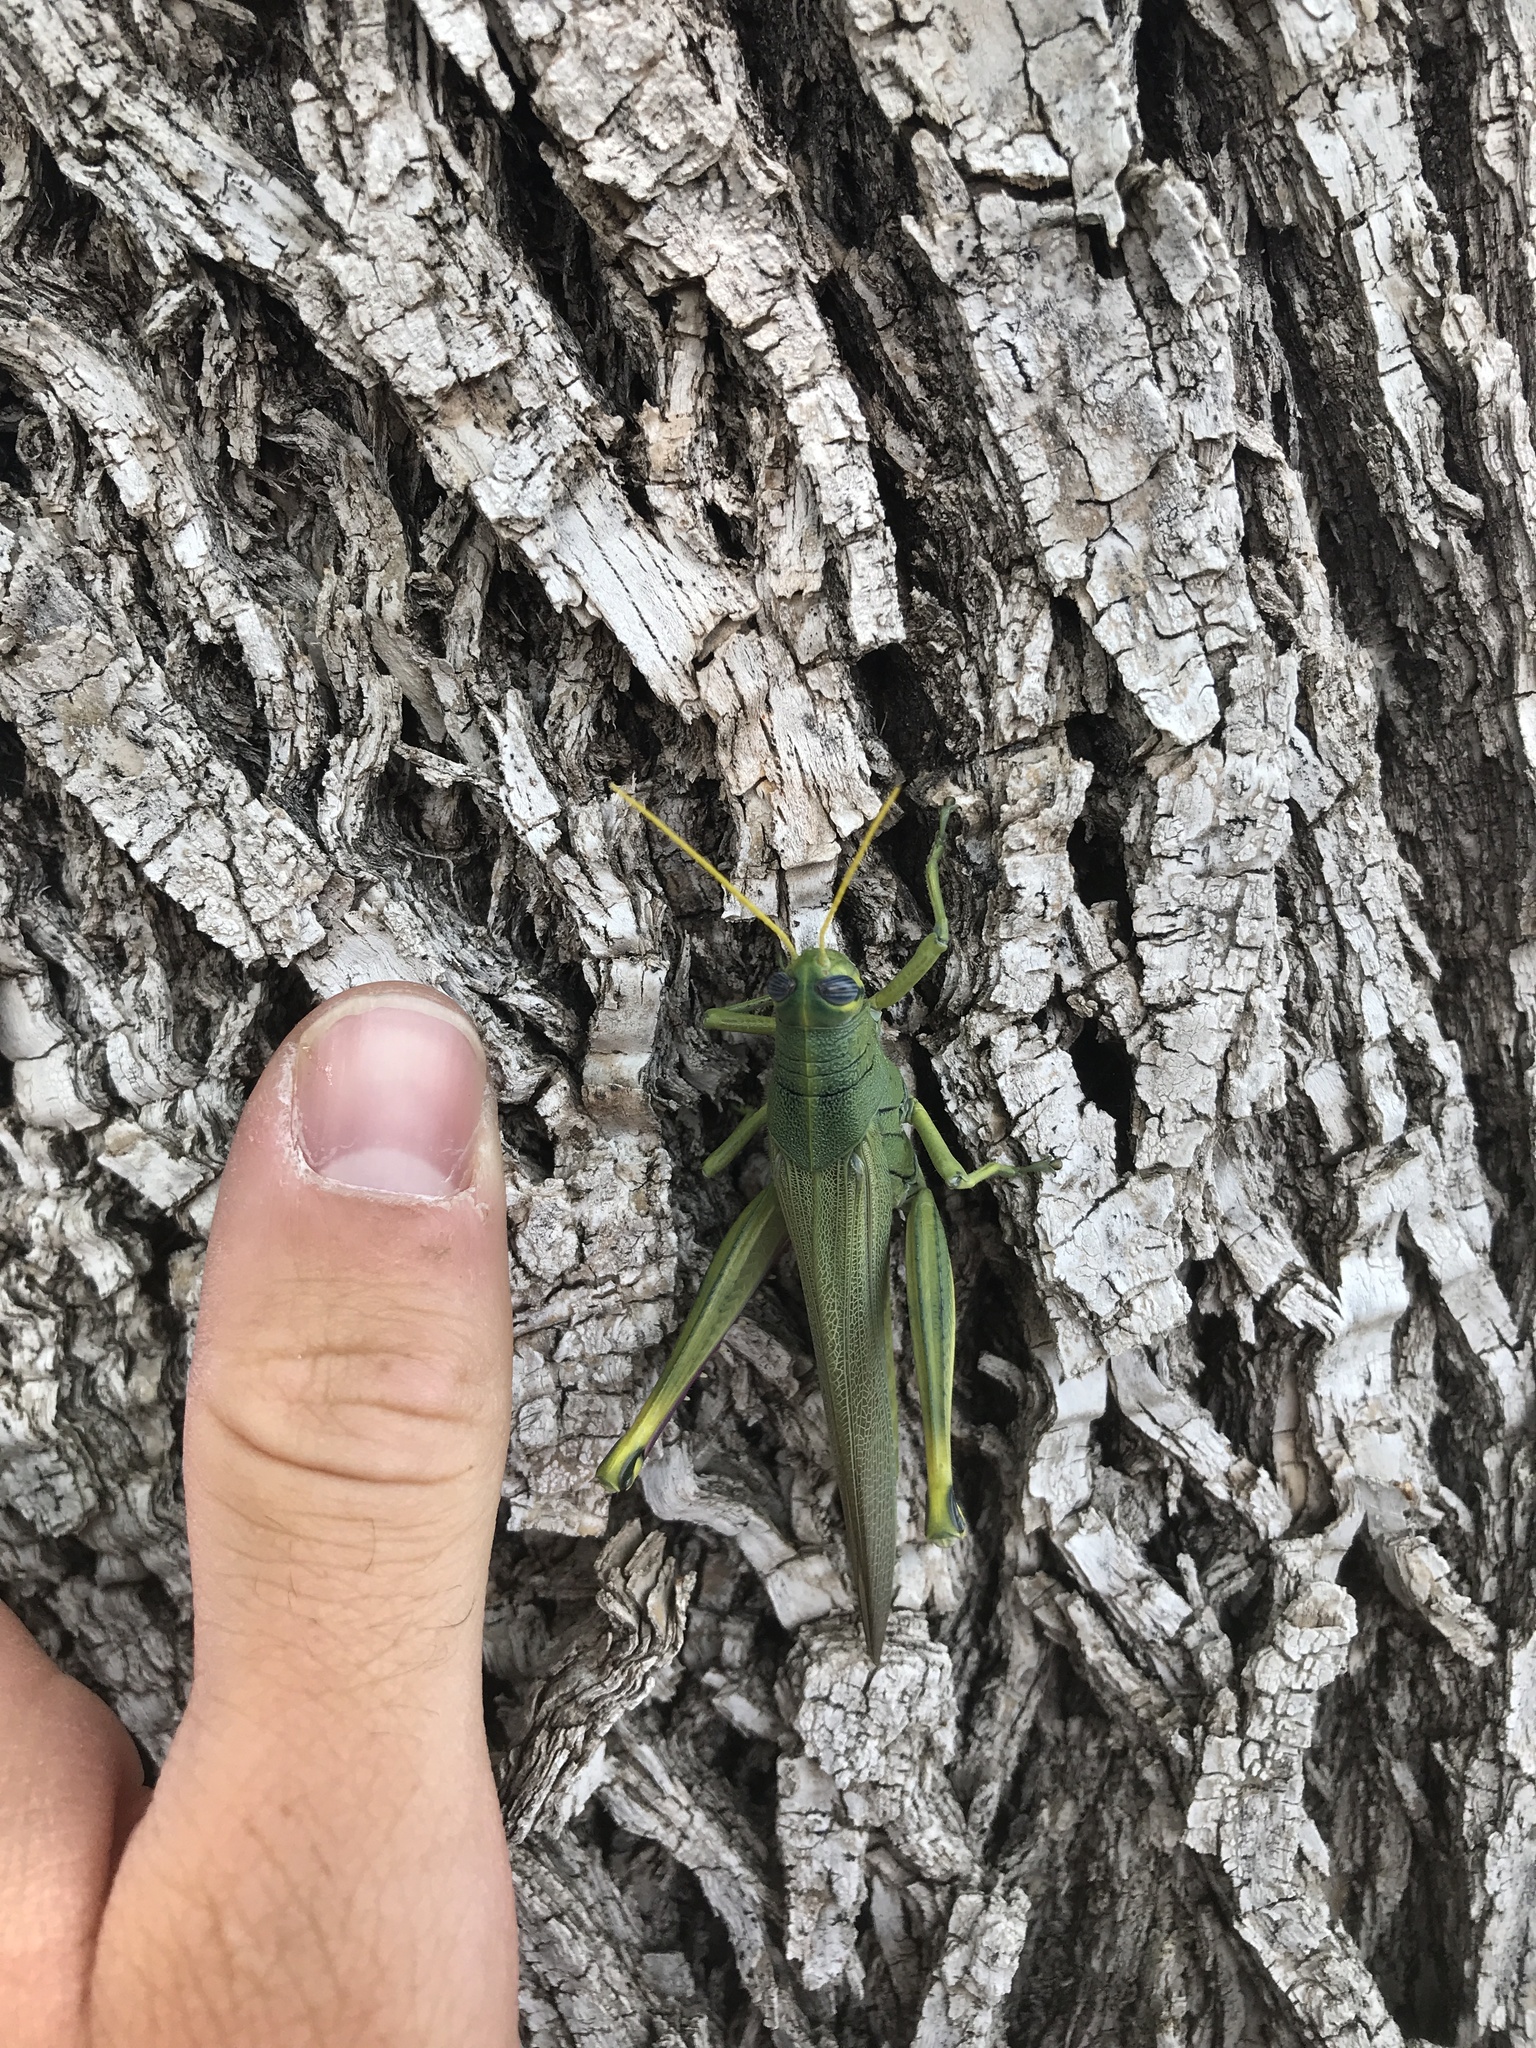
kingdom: Animalia
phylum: Arthropoda
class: Insecta
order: Orthoptera
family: Acrididae
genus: Schistocerca
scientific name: Schistocerca shoshone
